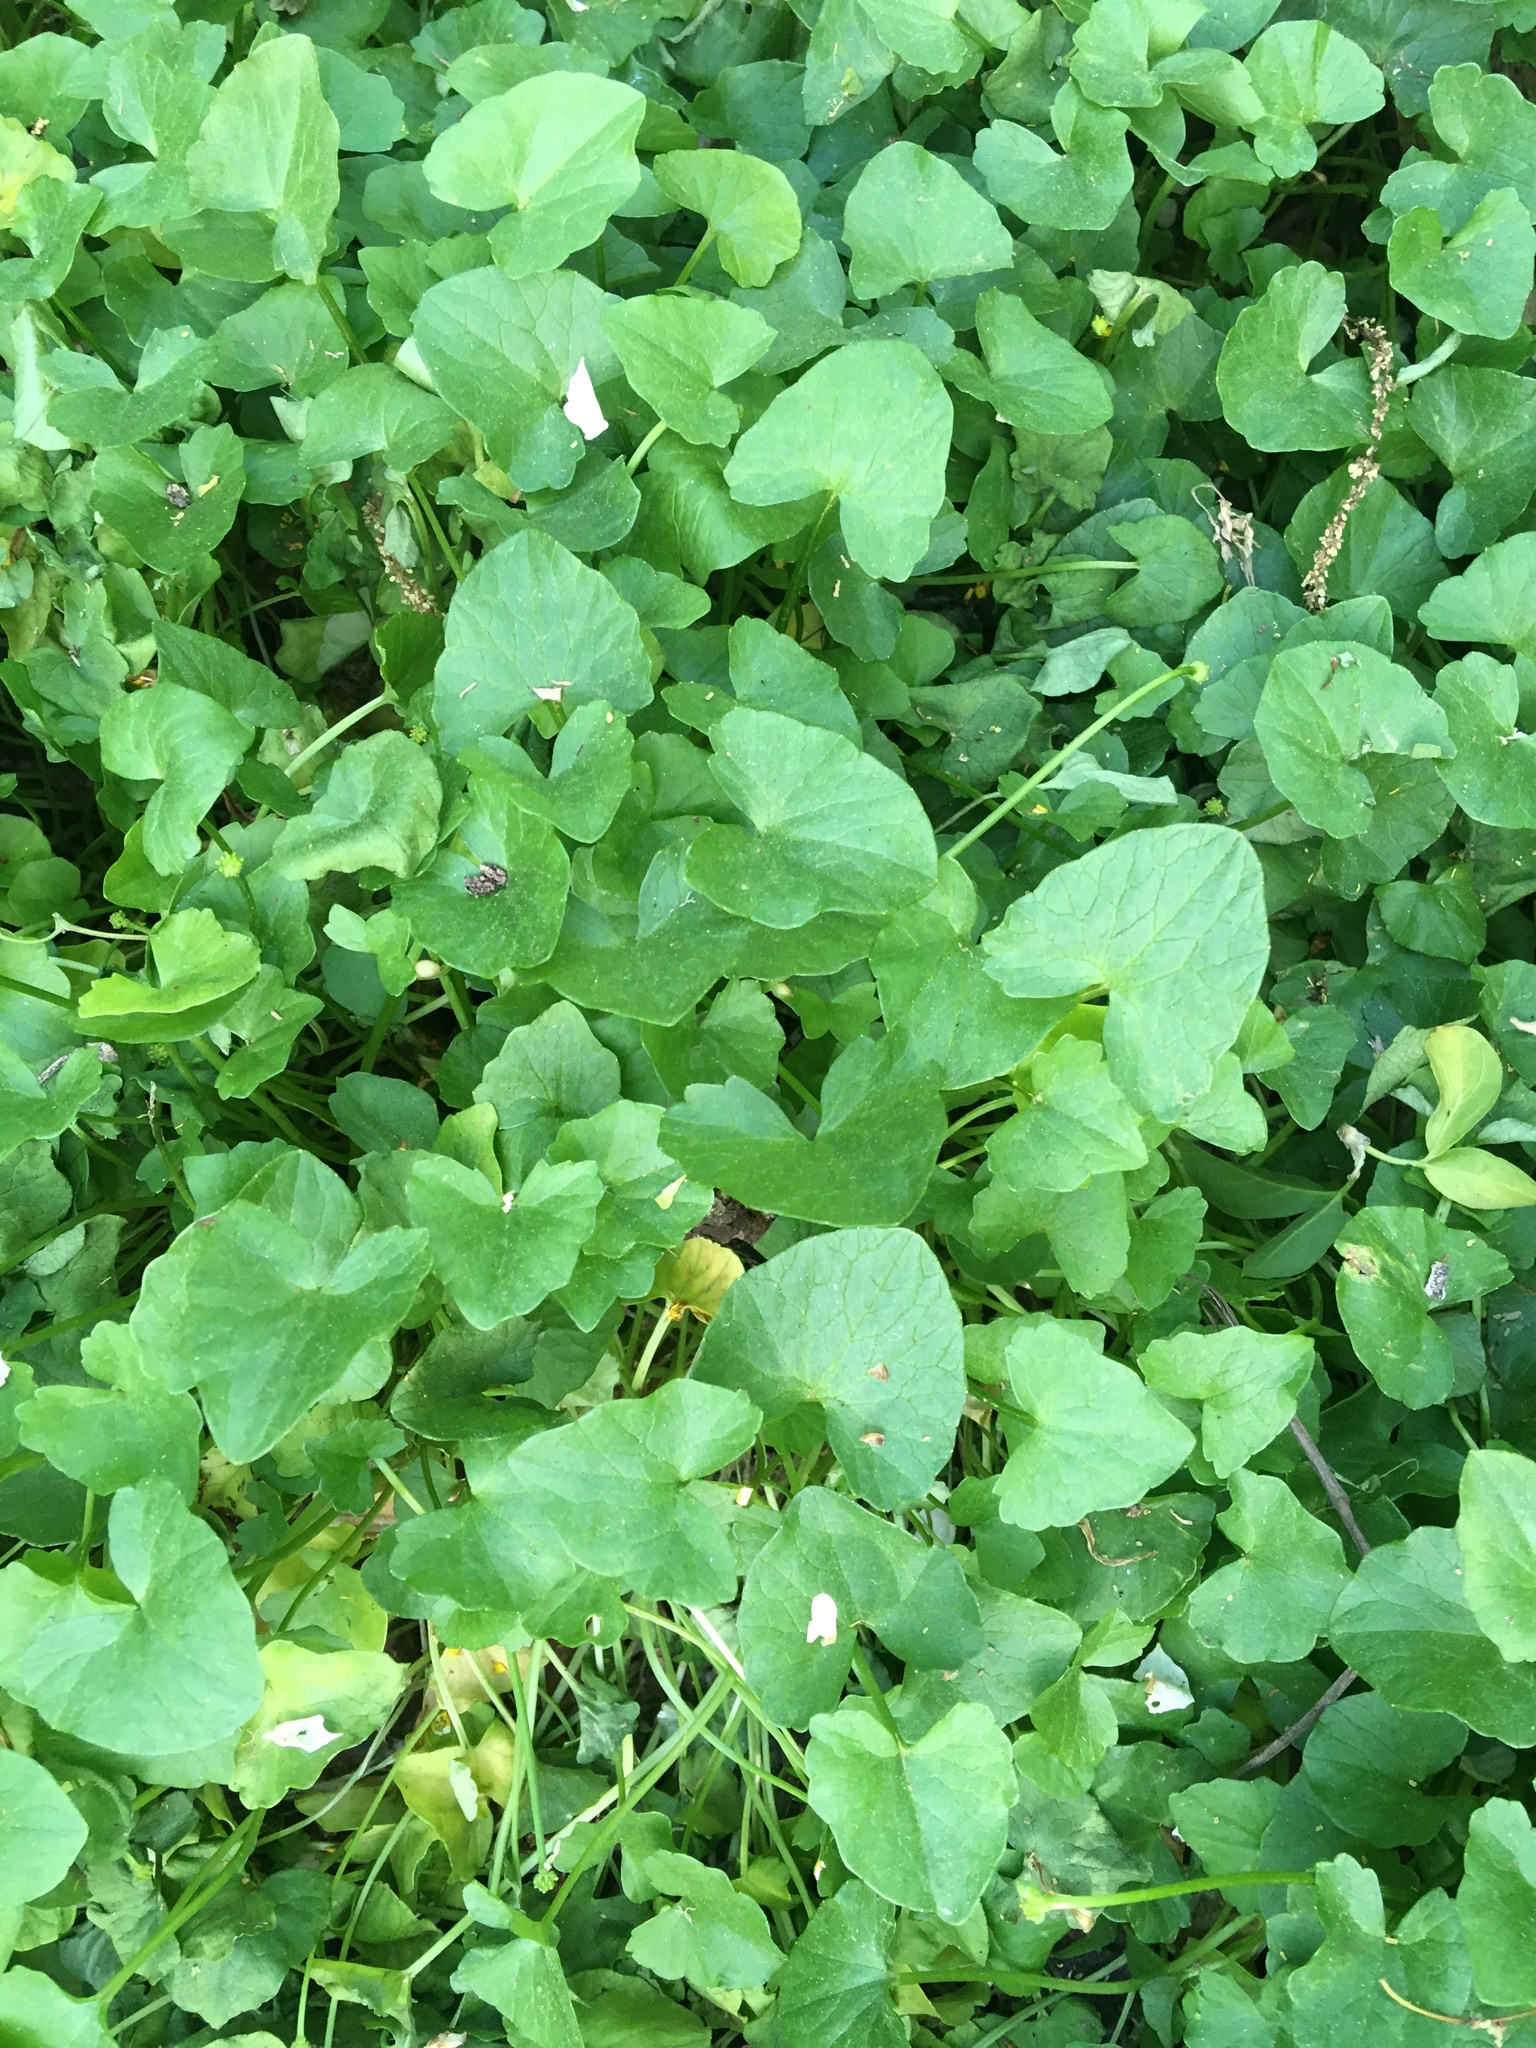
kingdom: Plantae
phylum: Tracheophyta
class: Magnoliopsida
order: Ranunculales
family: Ranunculaceae
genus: Ficaria
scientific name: Ficaria verna
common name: Lesser celandine
